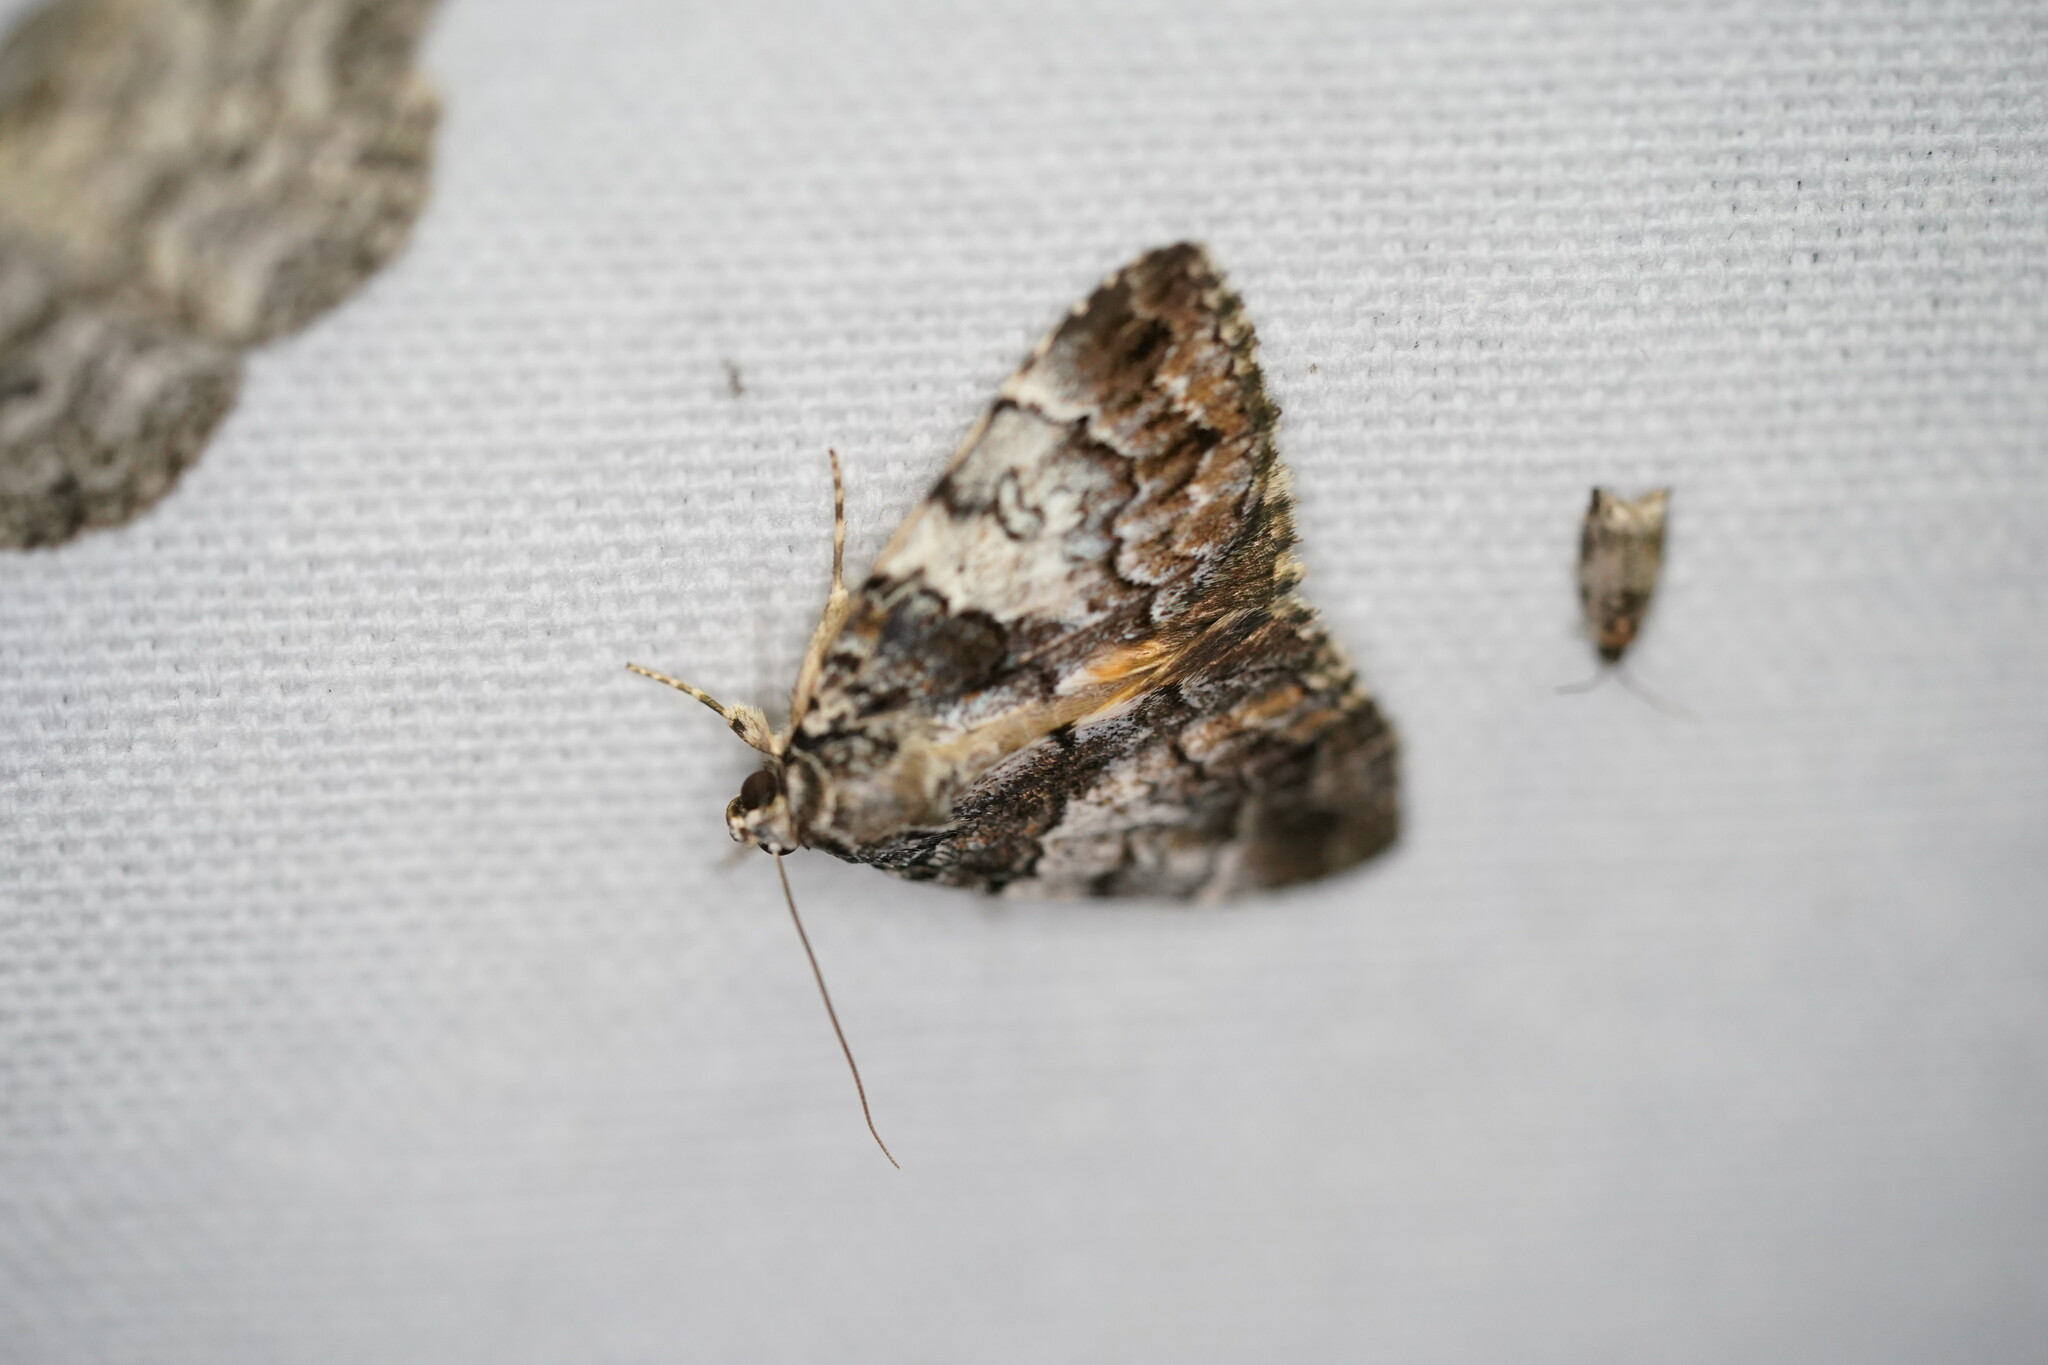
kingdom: Animalia
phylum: Arthropoda
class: Insecta
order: Lepidoptera
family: Erebidae
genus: Allotria
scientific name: Allotria elonympha
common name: False underwing
